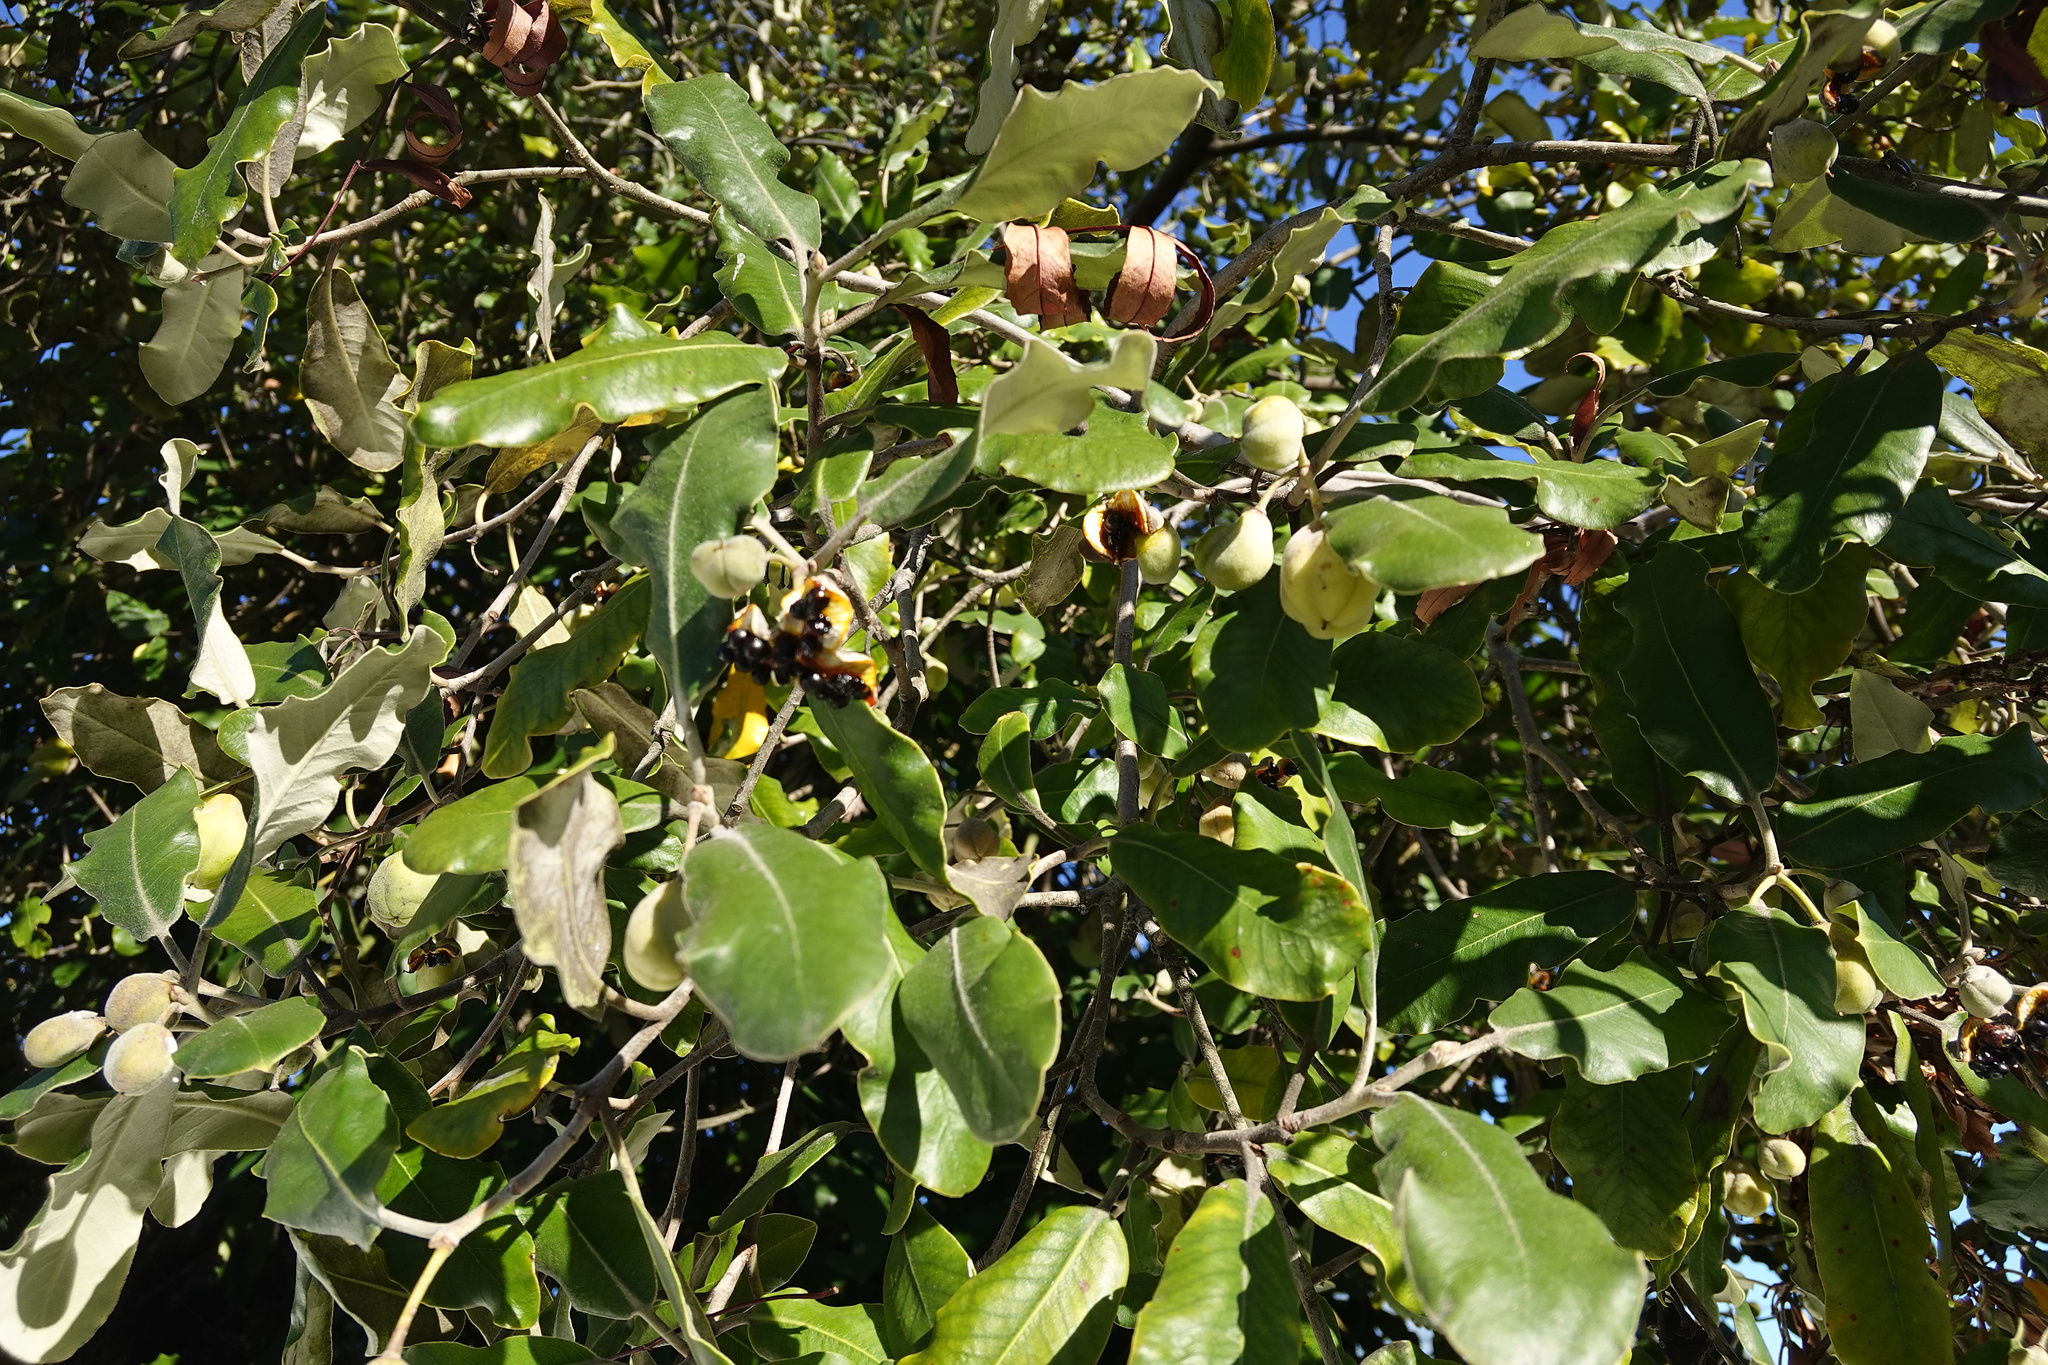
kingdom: Plantae
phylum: Tracheophyta
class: Magnoliopsida
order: Apiales
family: Pittosporaceae
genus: Pittosporum
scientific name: Pittosporum ralphii
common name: Ralph's desertwillow
